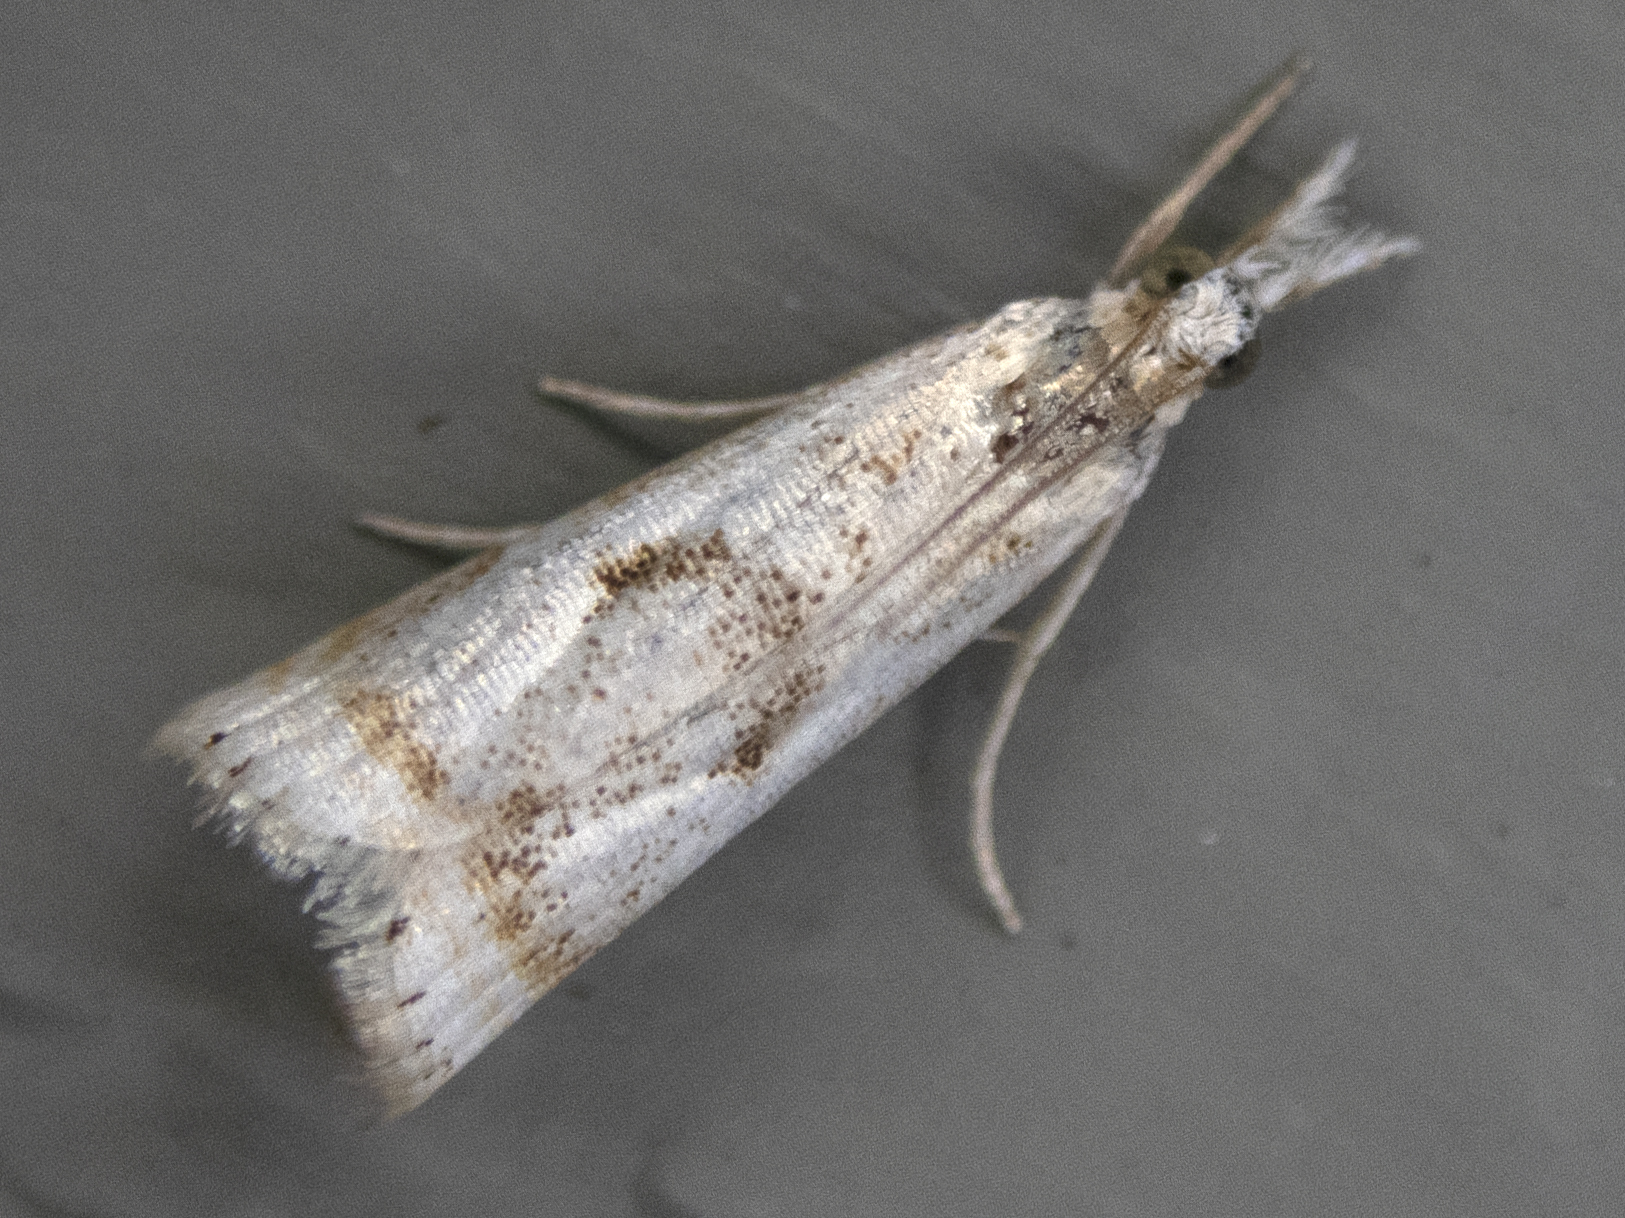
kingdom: Animalia
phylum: Arthropoda
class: Insecta
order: Lepidoptera
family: Crambidae
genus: Microcrambus
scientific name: Microcrambus elegans
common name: Elegant grass-veneer
